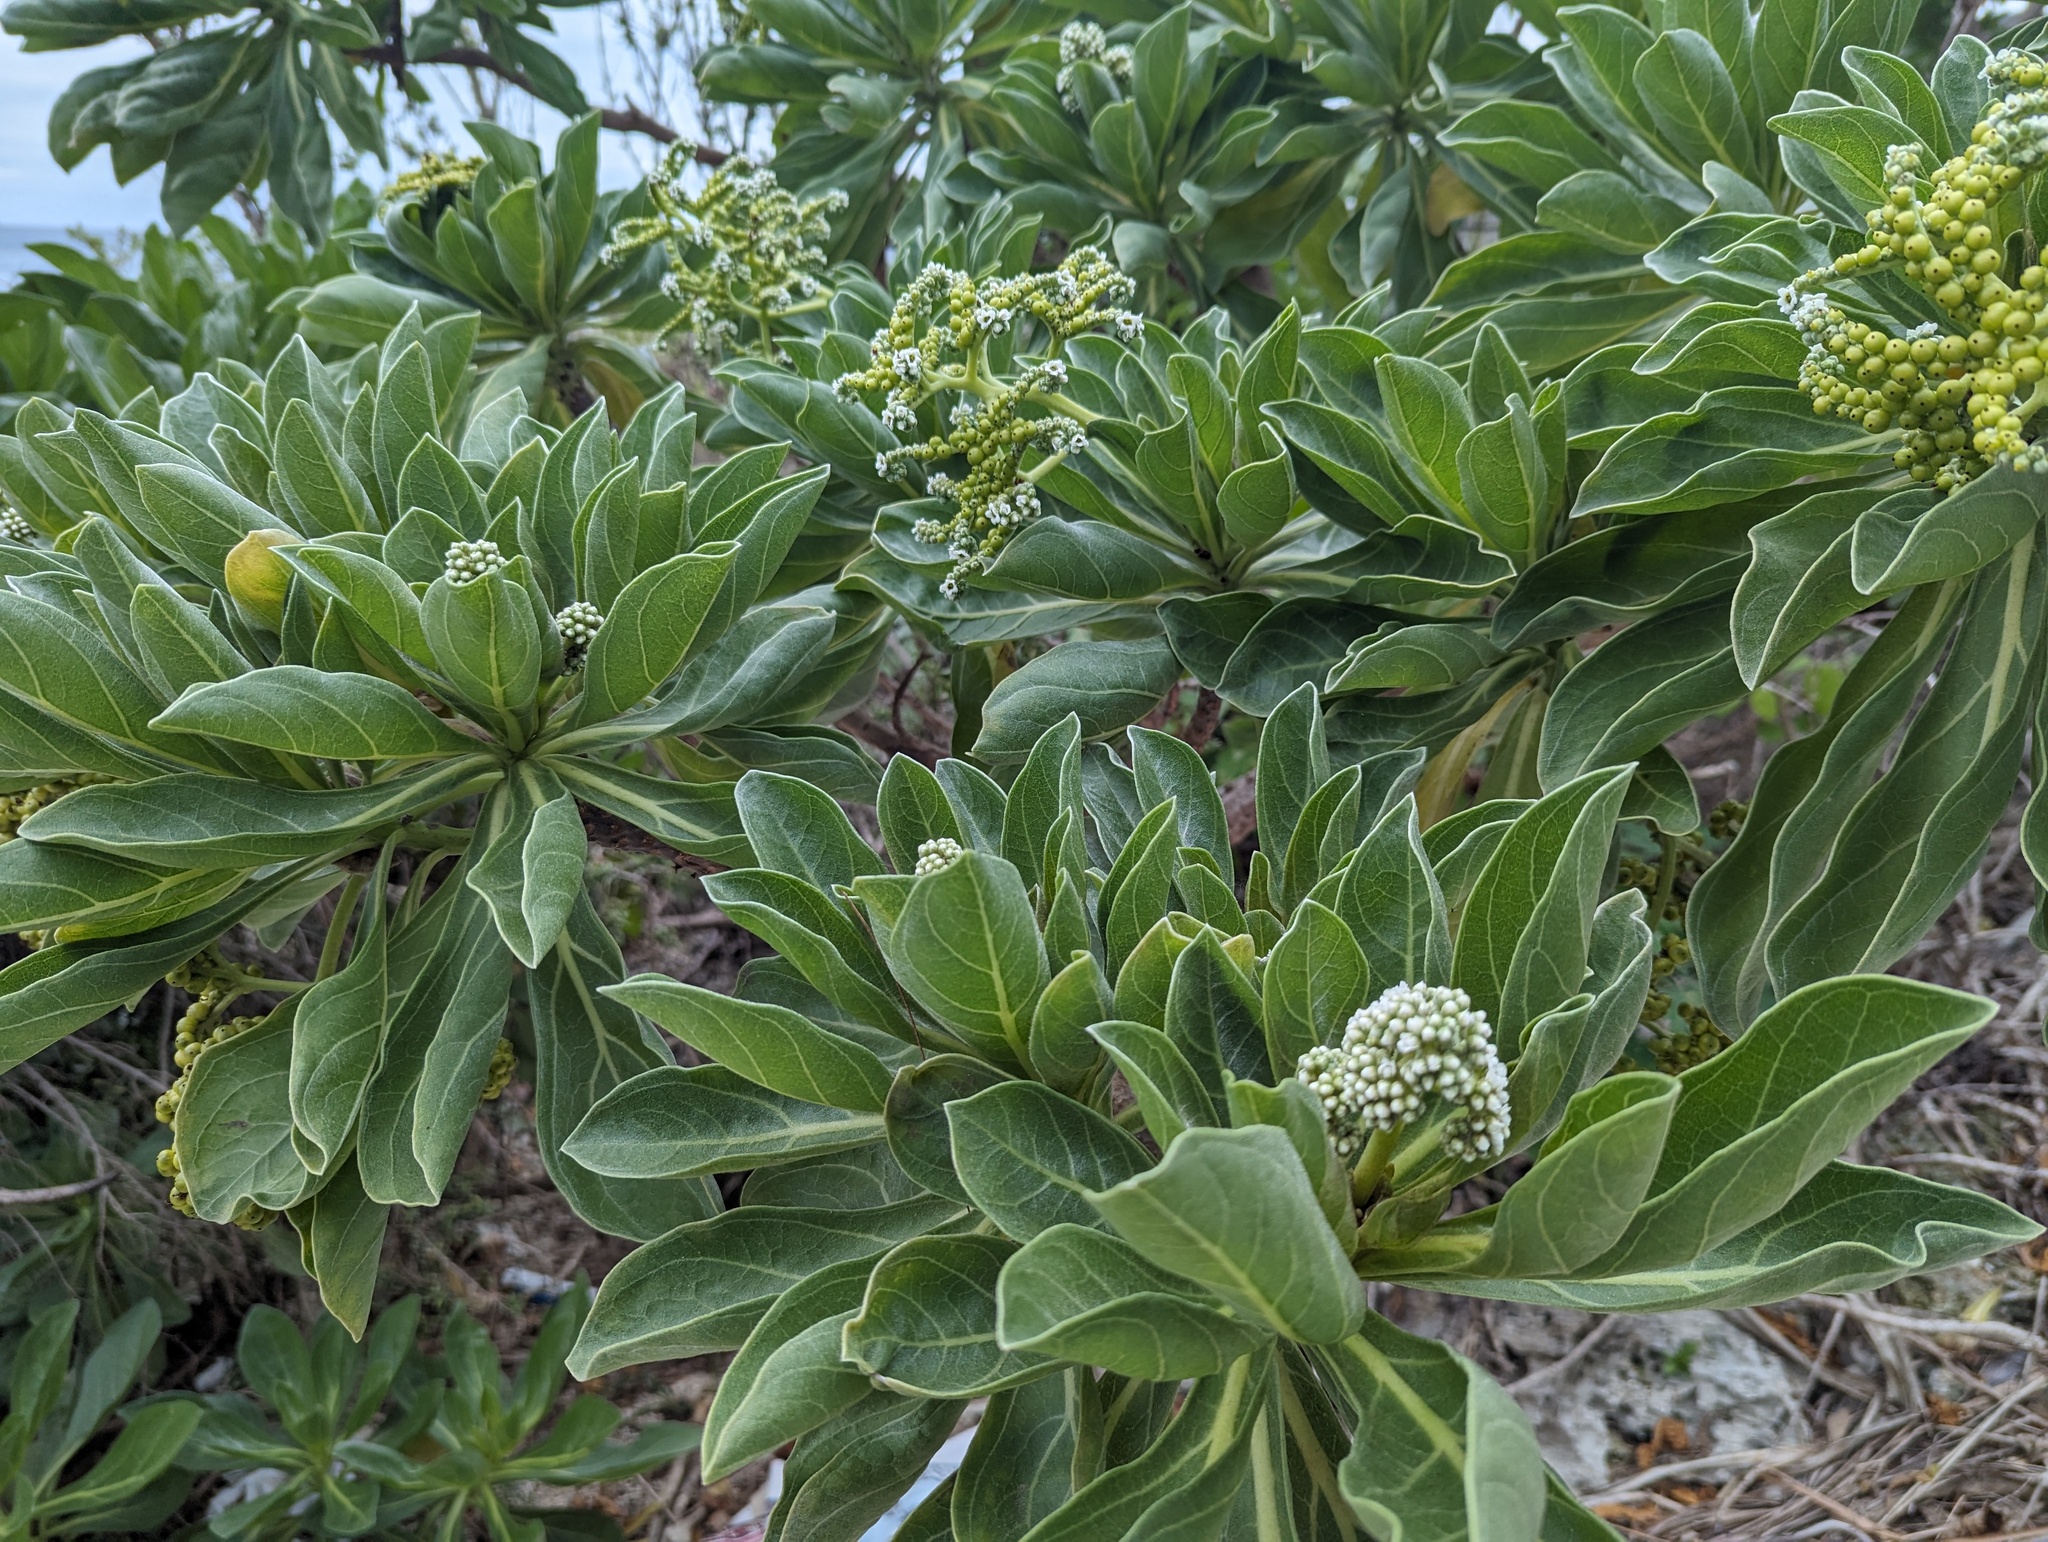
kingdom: Plantae
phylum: Tracheophyta
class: Magnoliopsida
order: Boraginales
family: Heliotropiaceae
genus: Heliotropium
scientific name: Heliotropium velutinum
